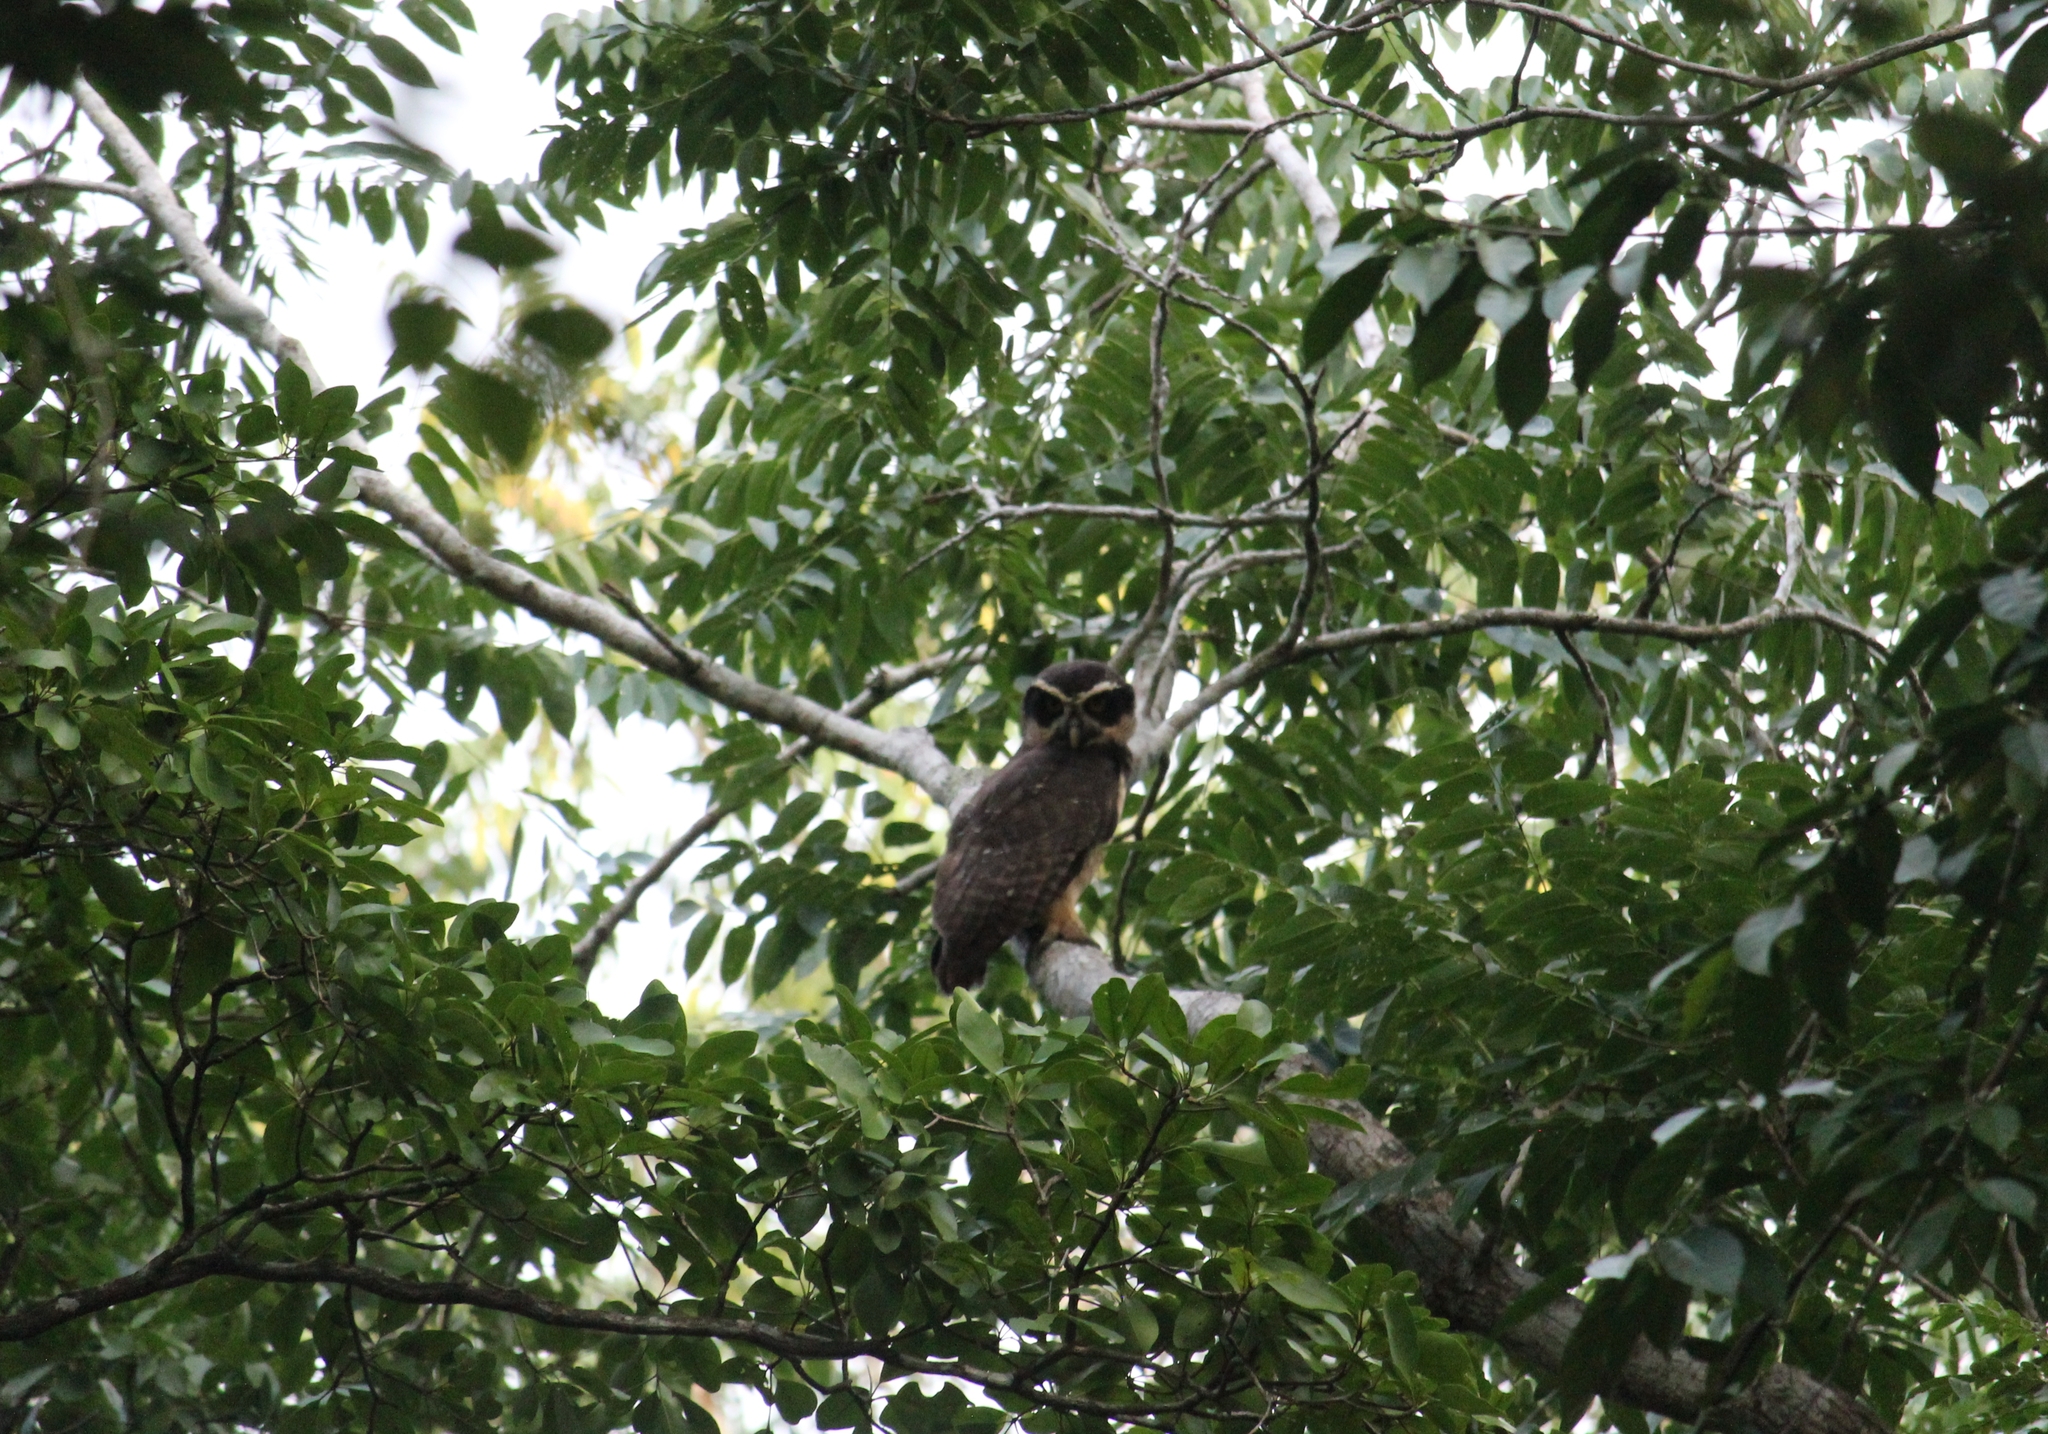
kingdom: Animalia
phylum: Chordata
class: Aves
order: Strigiformes
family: Strigidae
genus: Pulsatrix
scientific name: Pulsatrix perspicillata
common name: Spectacled owl
